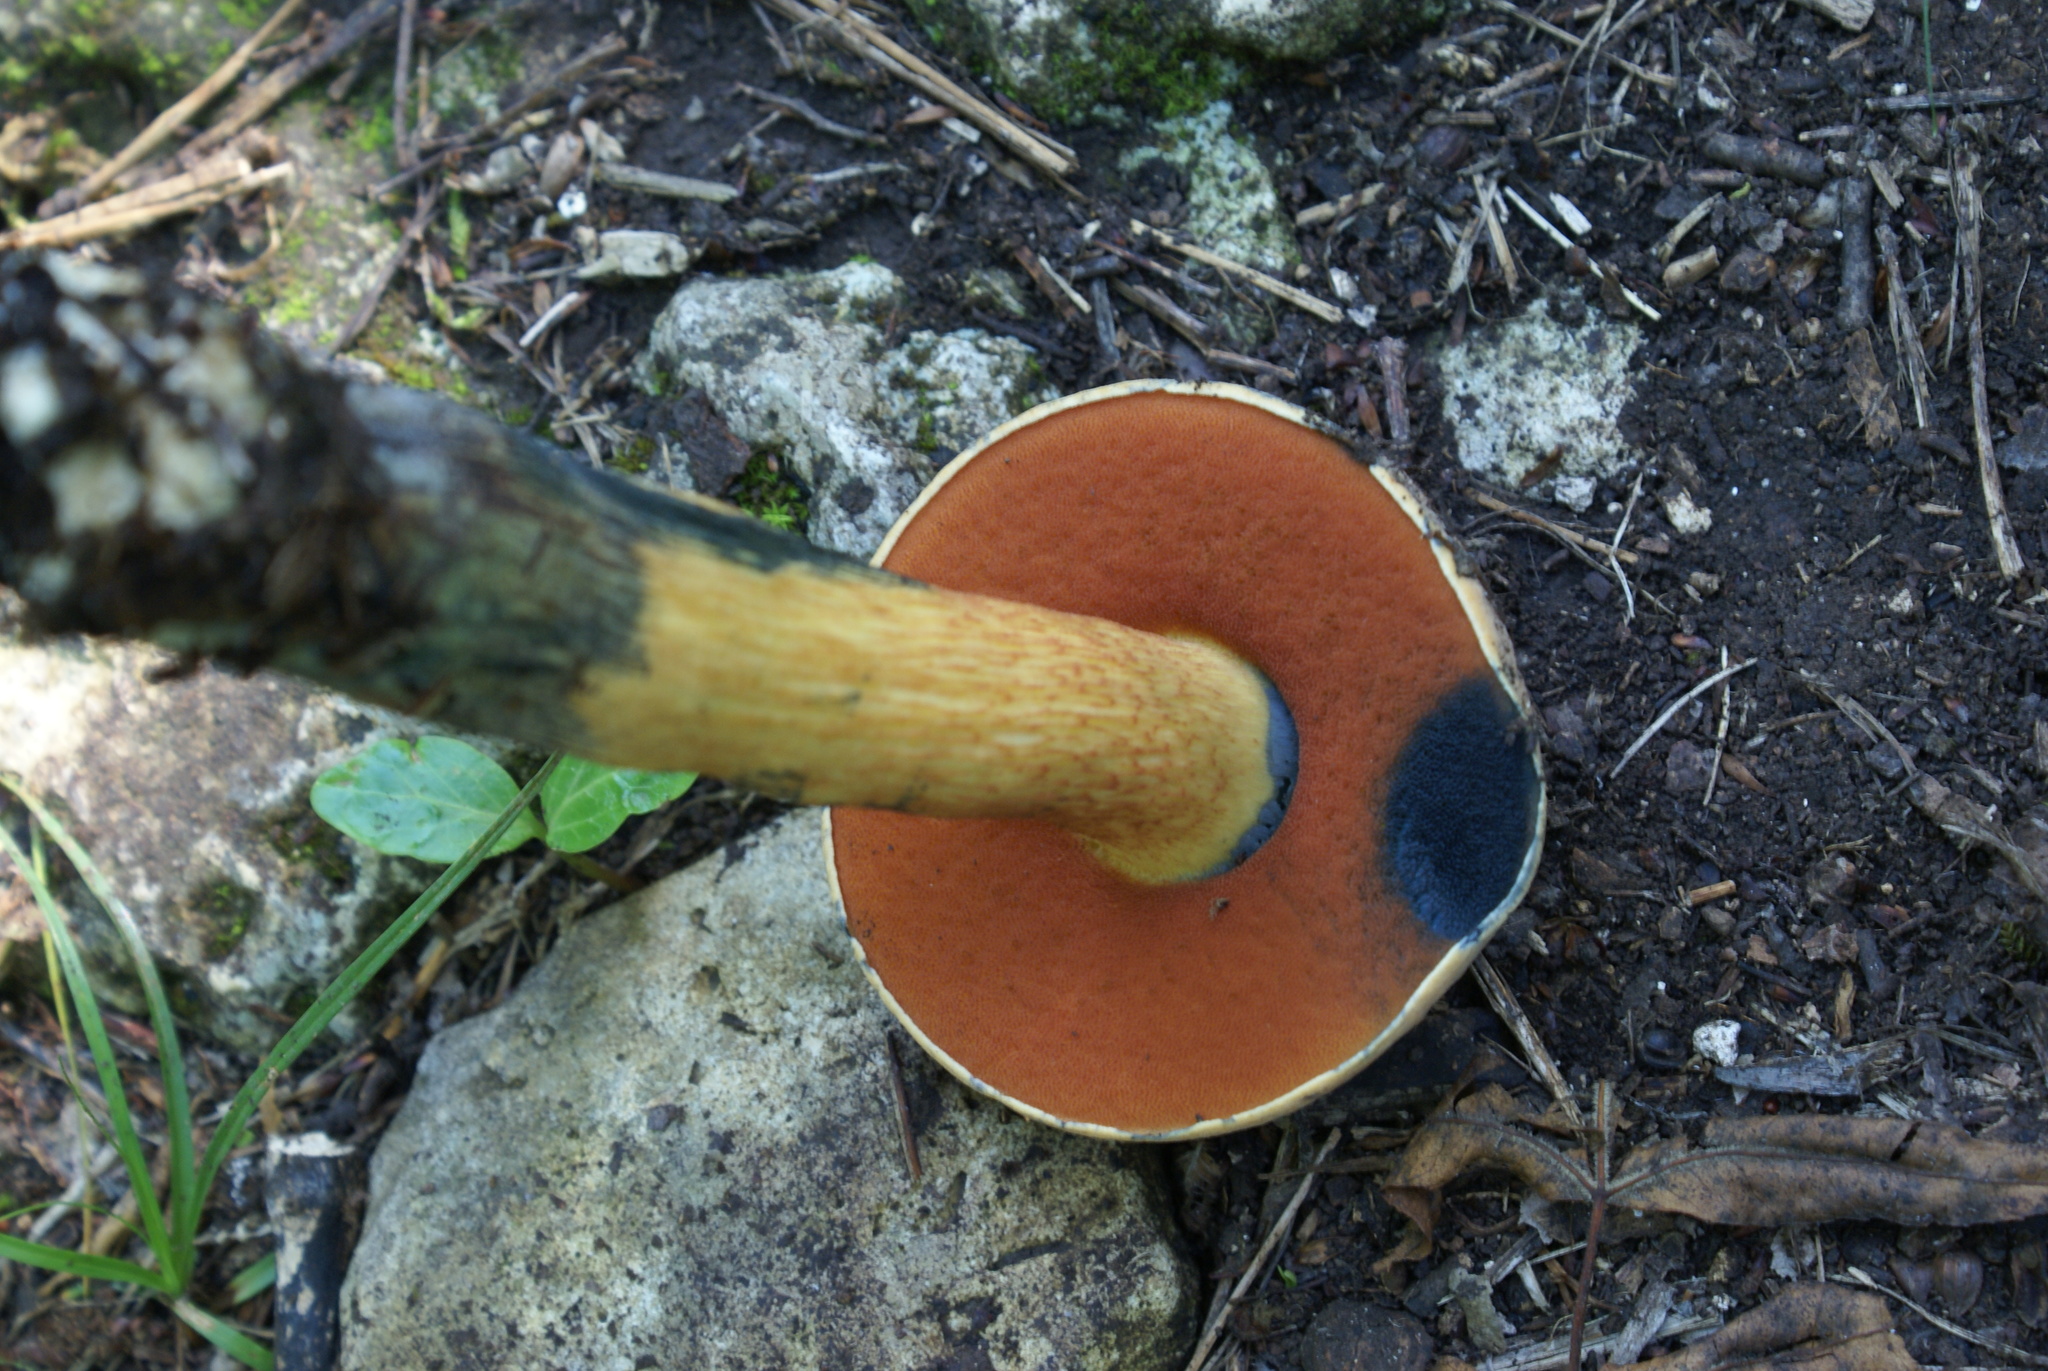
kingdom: Fungi
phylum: Basidiomycota
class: Agaricomycetes
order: Boletales
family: Boletaceae
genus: Suillellus
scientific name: Suillellus luridus
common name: Lurid bolete
